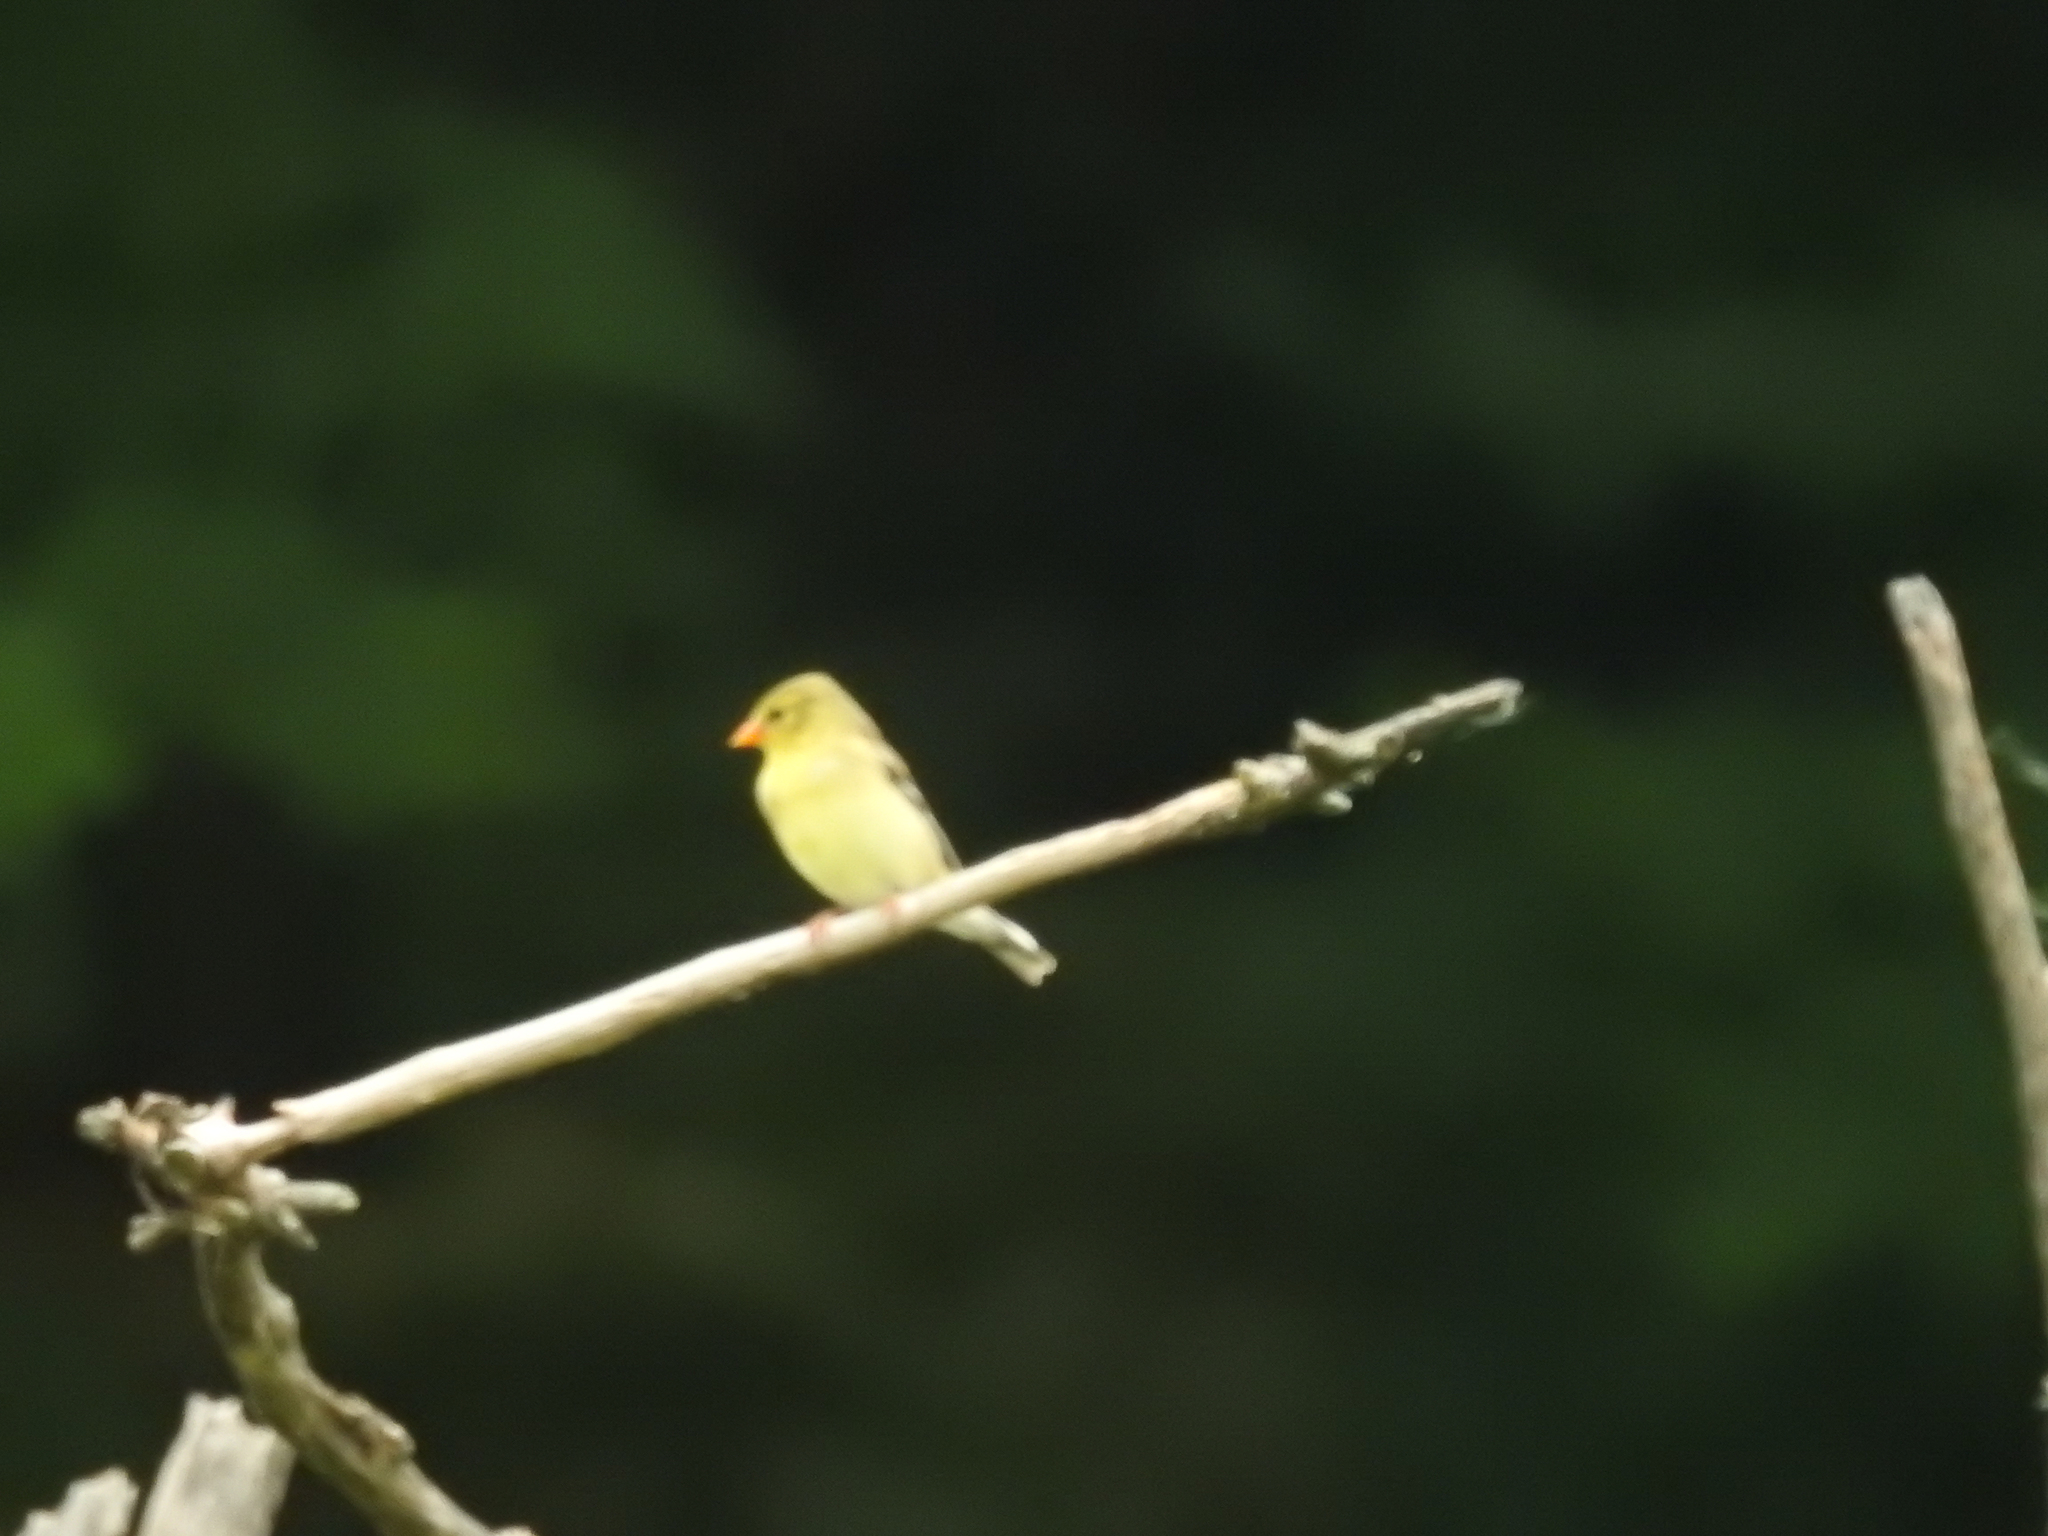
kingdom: Animalia
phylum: Chordata
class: Aves
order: Passeriformes
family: Fringillidae
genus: Spinus
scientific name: Spinus tristis
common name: American goldfinch
